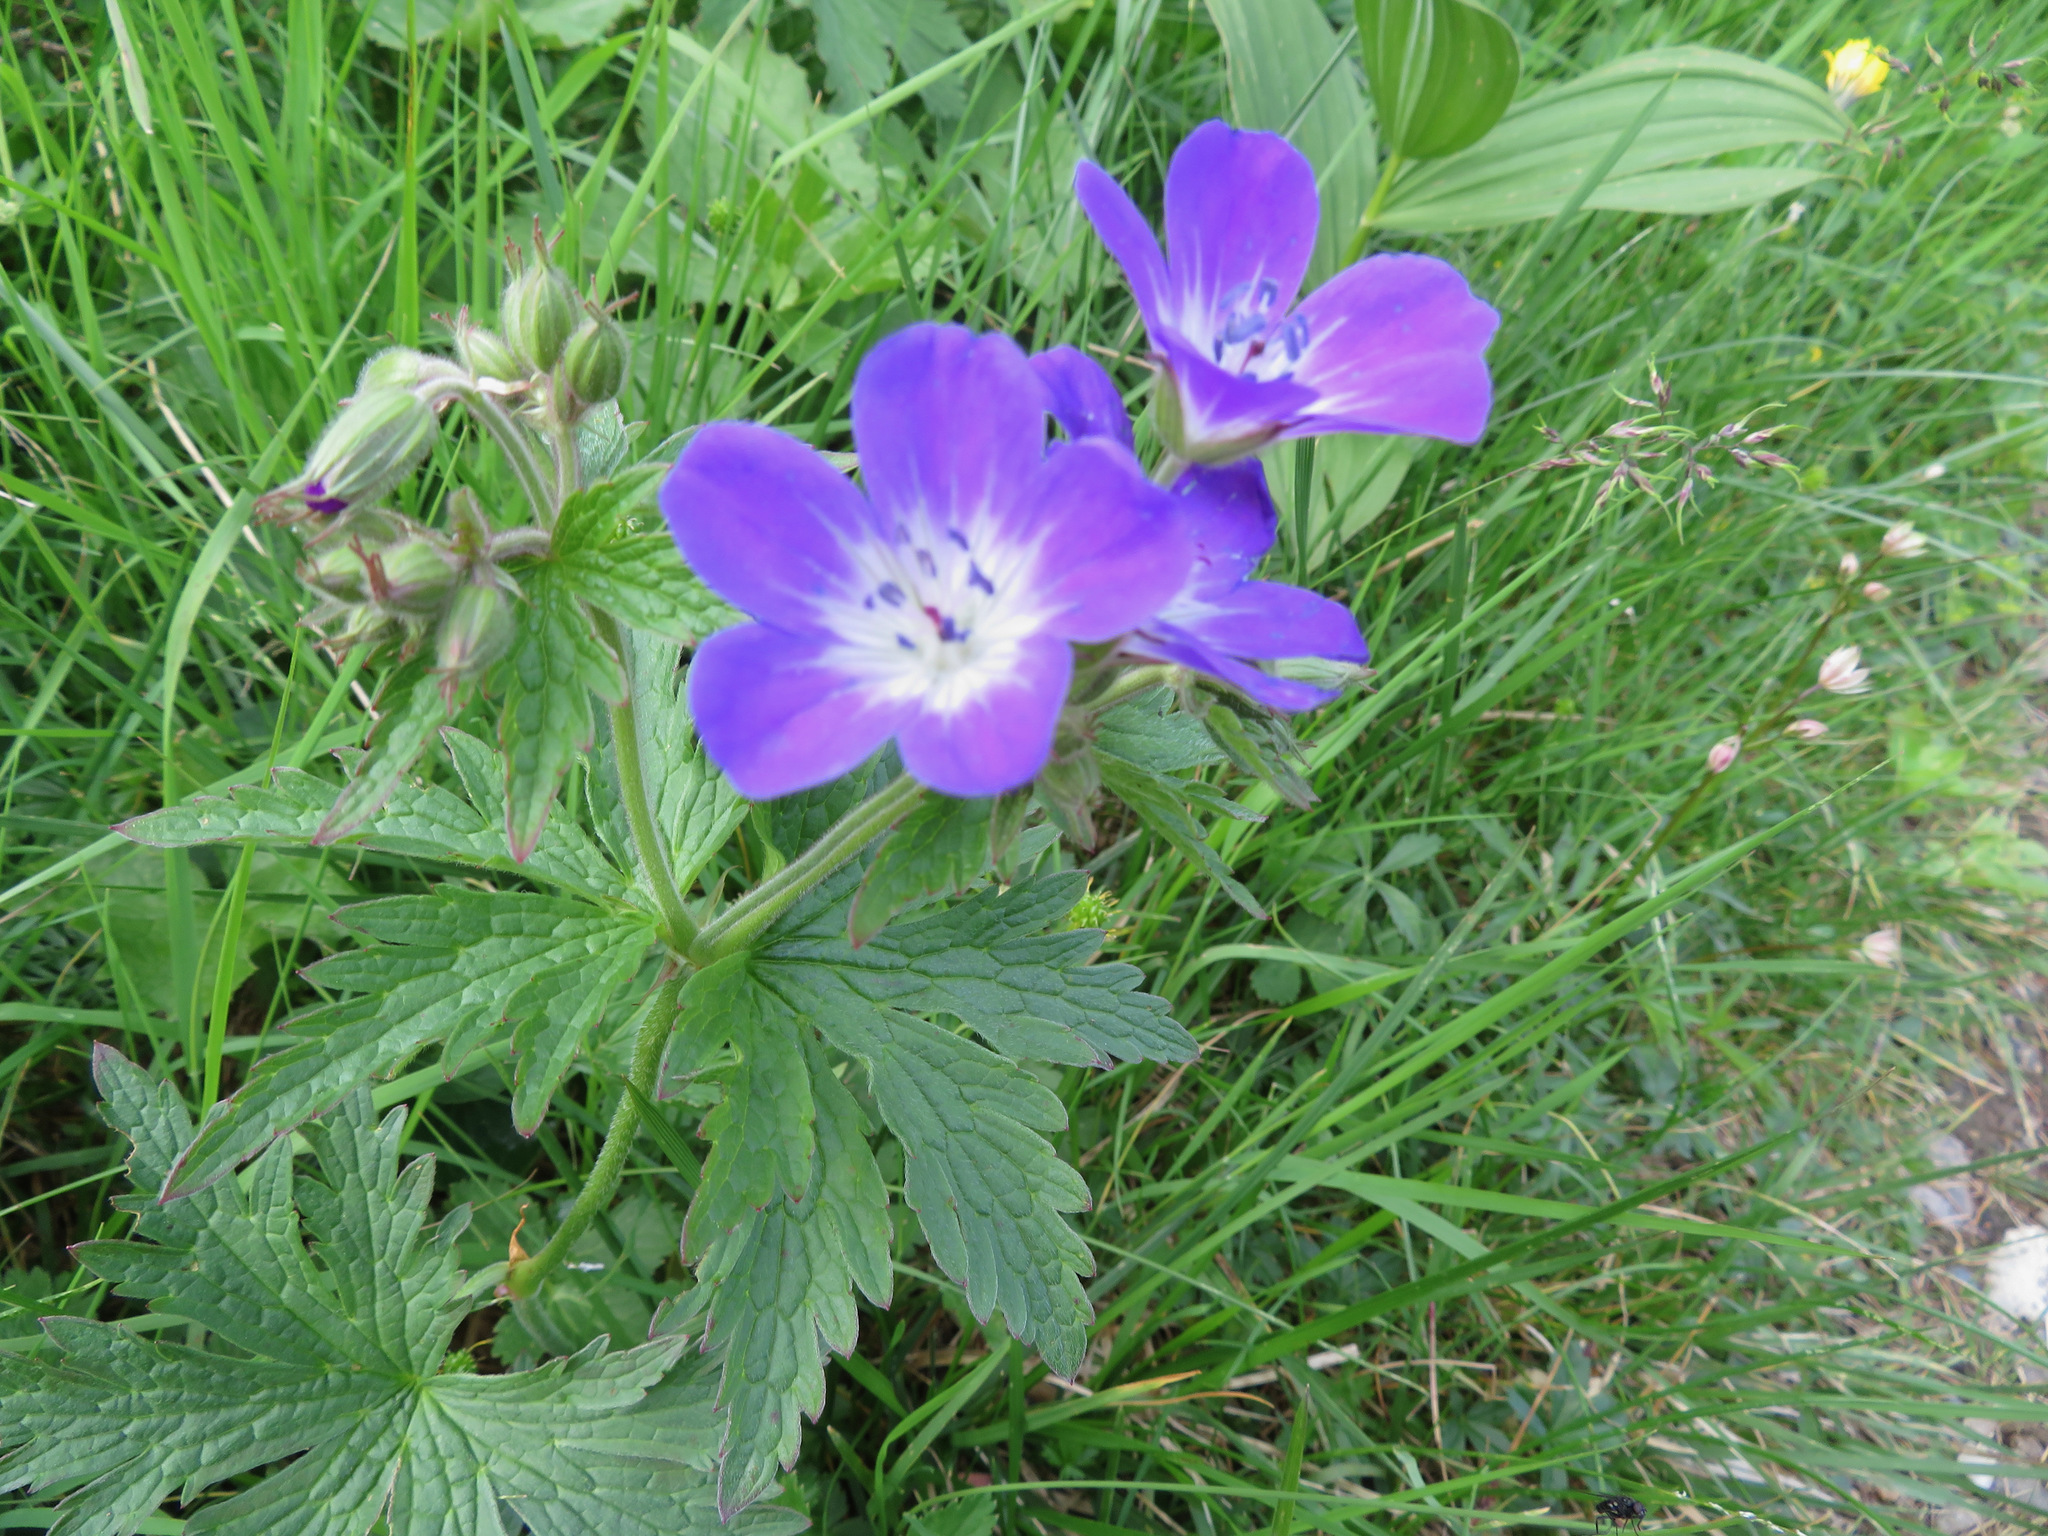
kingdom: Plantae
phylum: Tracheophyta
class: Magnoliopsida
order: Geraniales
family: Geraniaceae
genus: Geranium
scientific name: Geranium sylvaticum
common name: Wood crane's-bill
